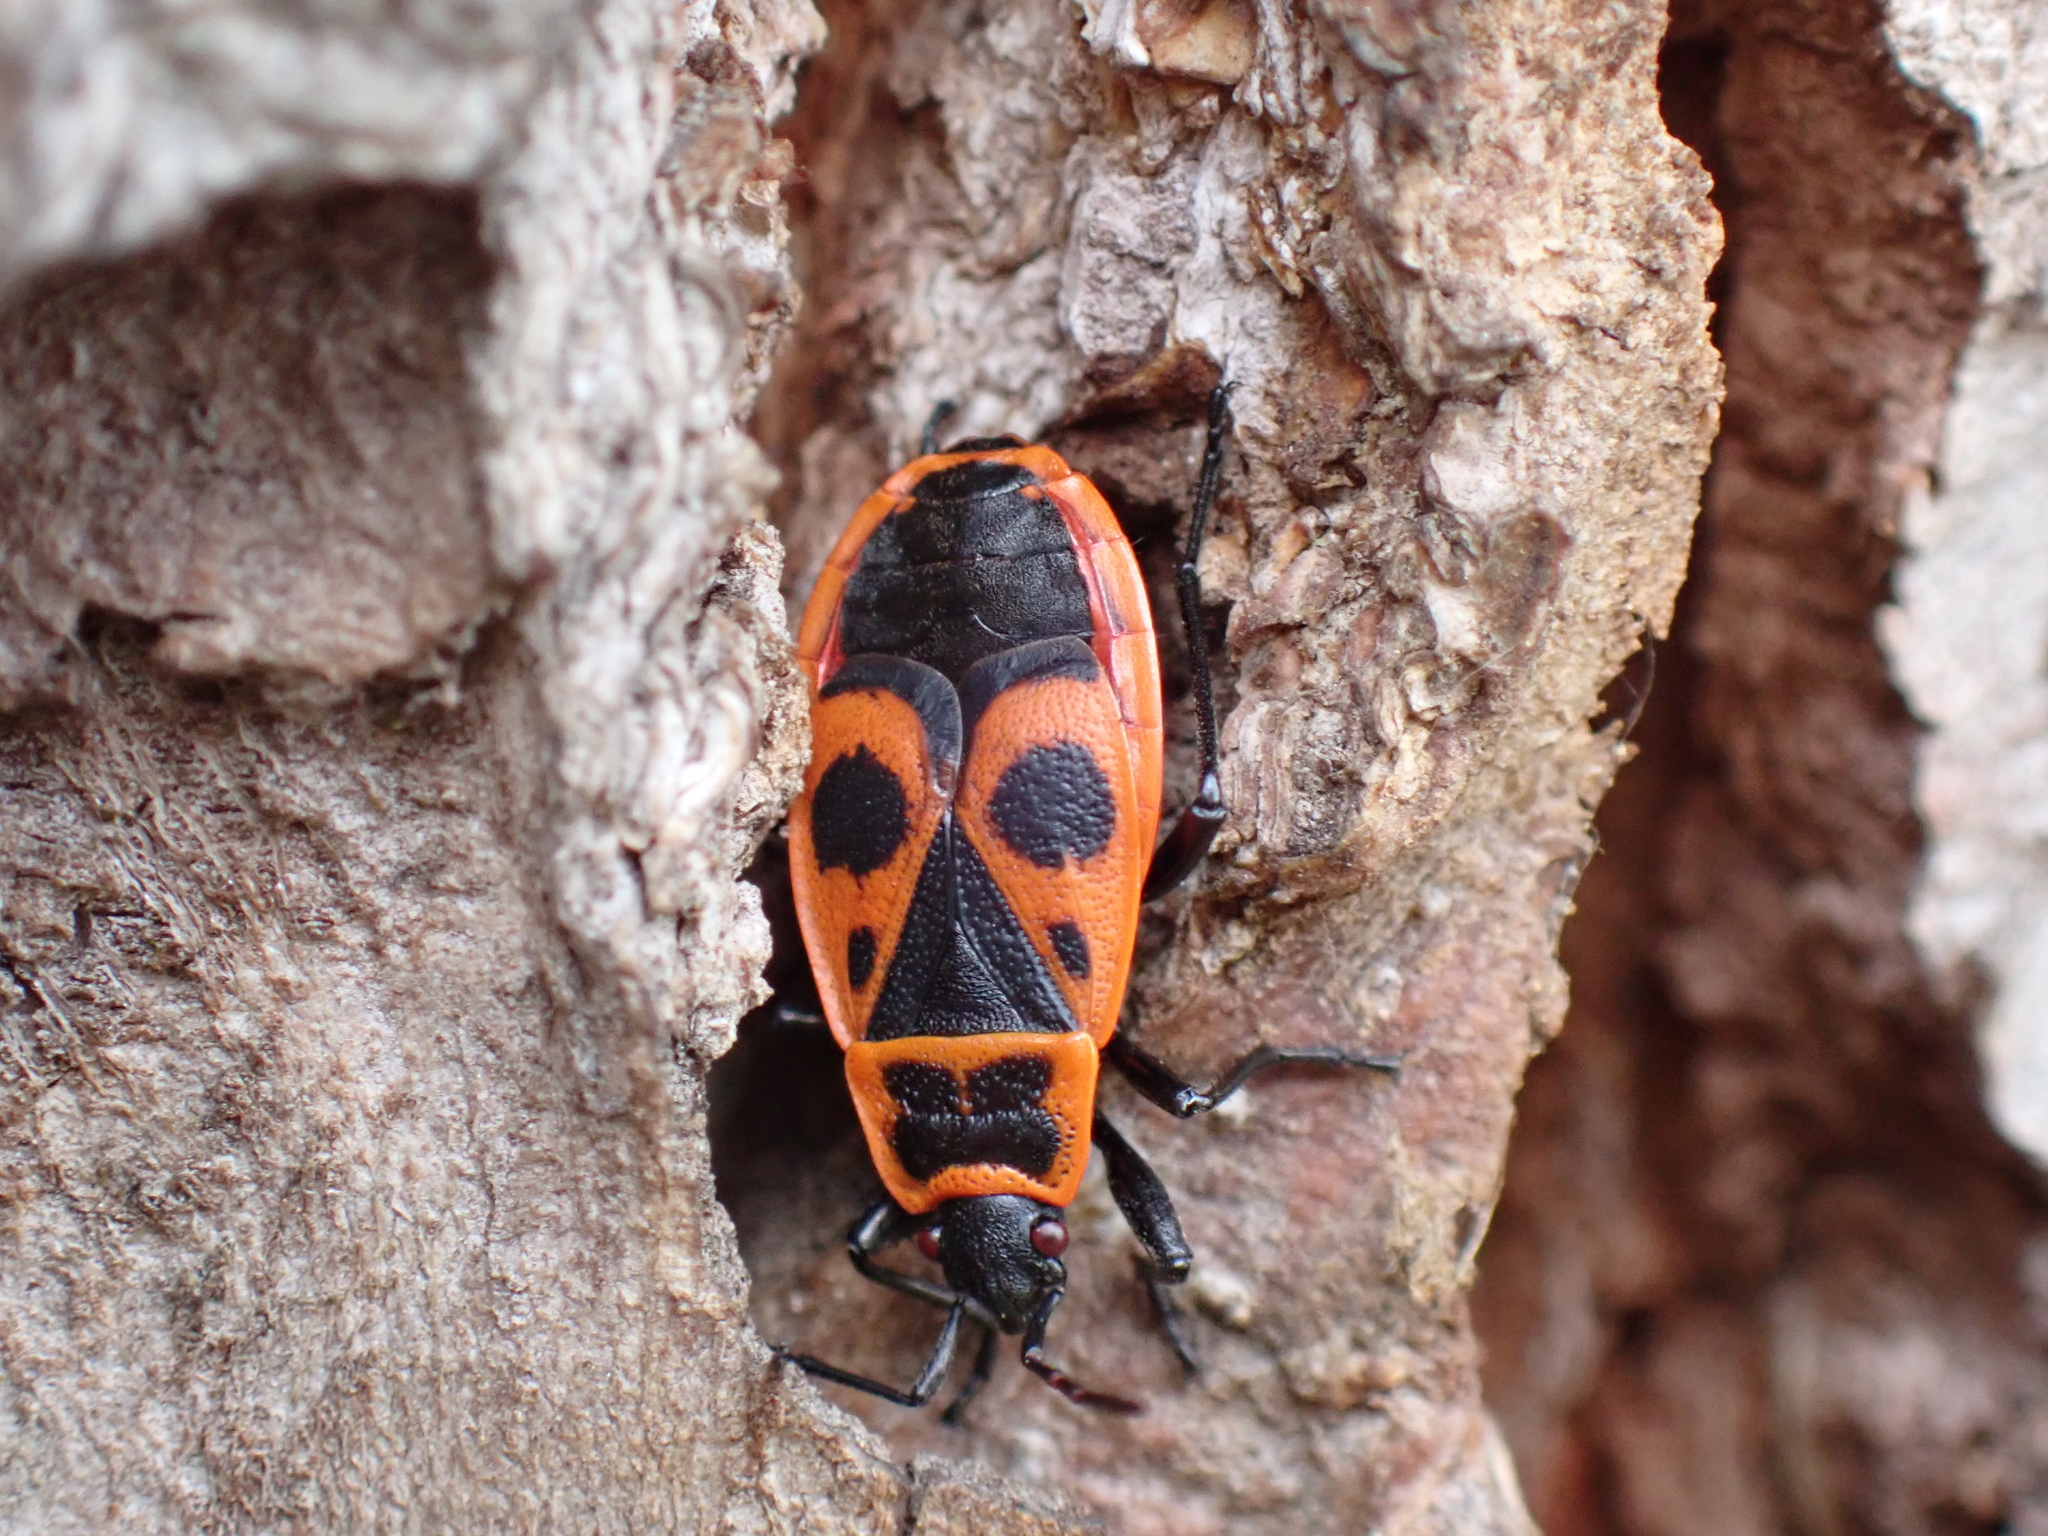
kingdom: Animalia
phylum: Arthropoda
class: Insecta
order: Hemiptera
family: Pyrrhocoridae
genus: Pyrrhocoris
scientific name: Pyrrhocoris apterus
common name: Firebug
